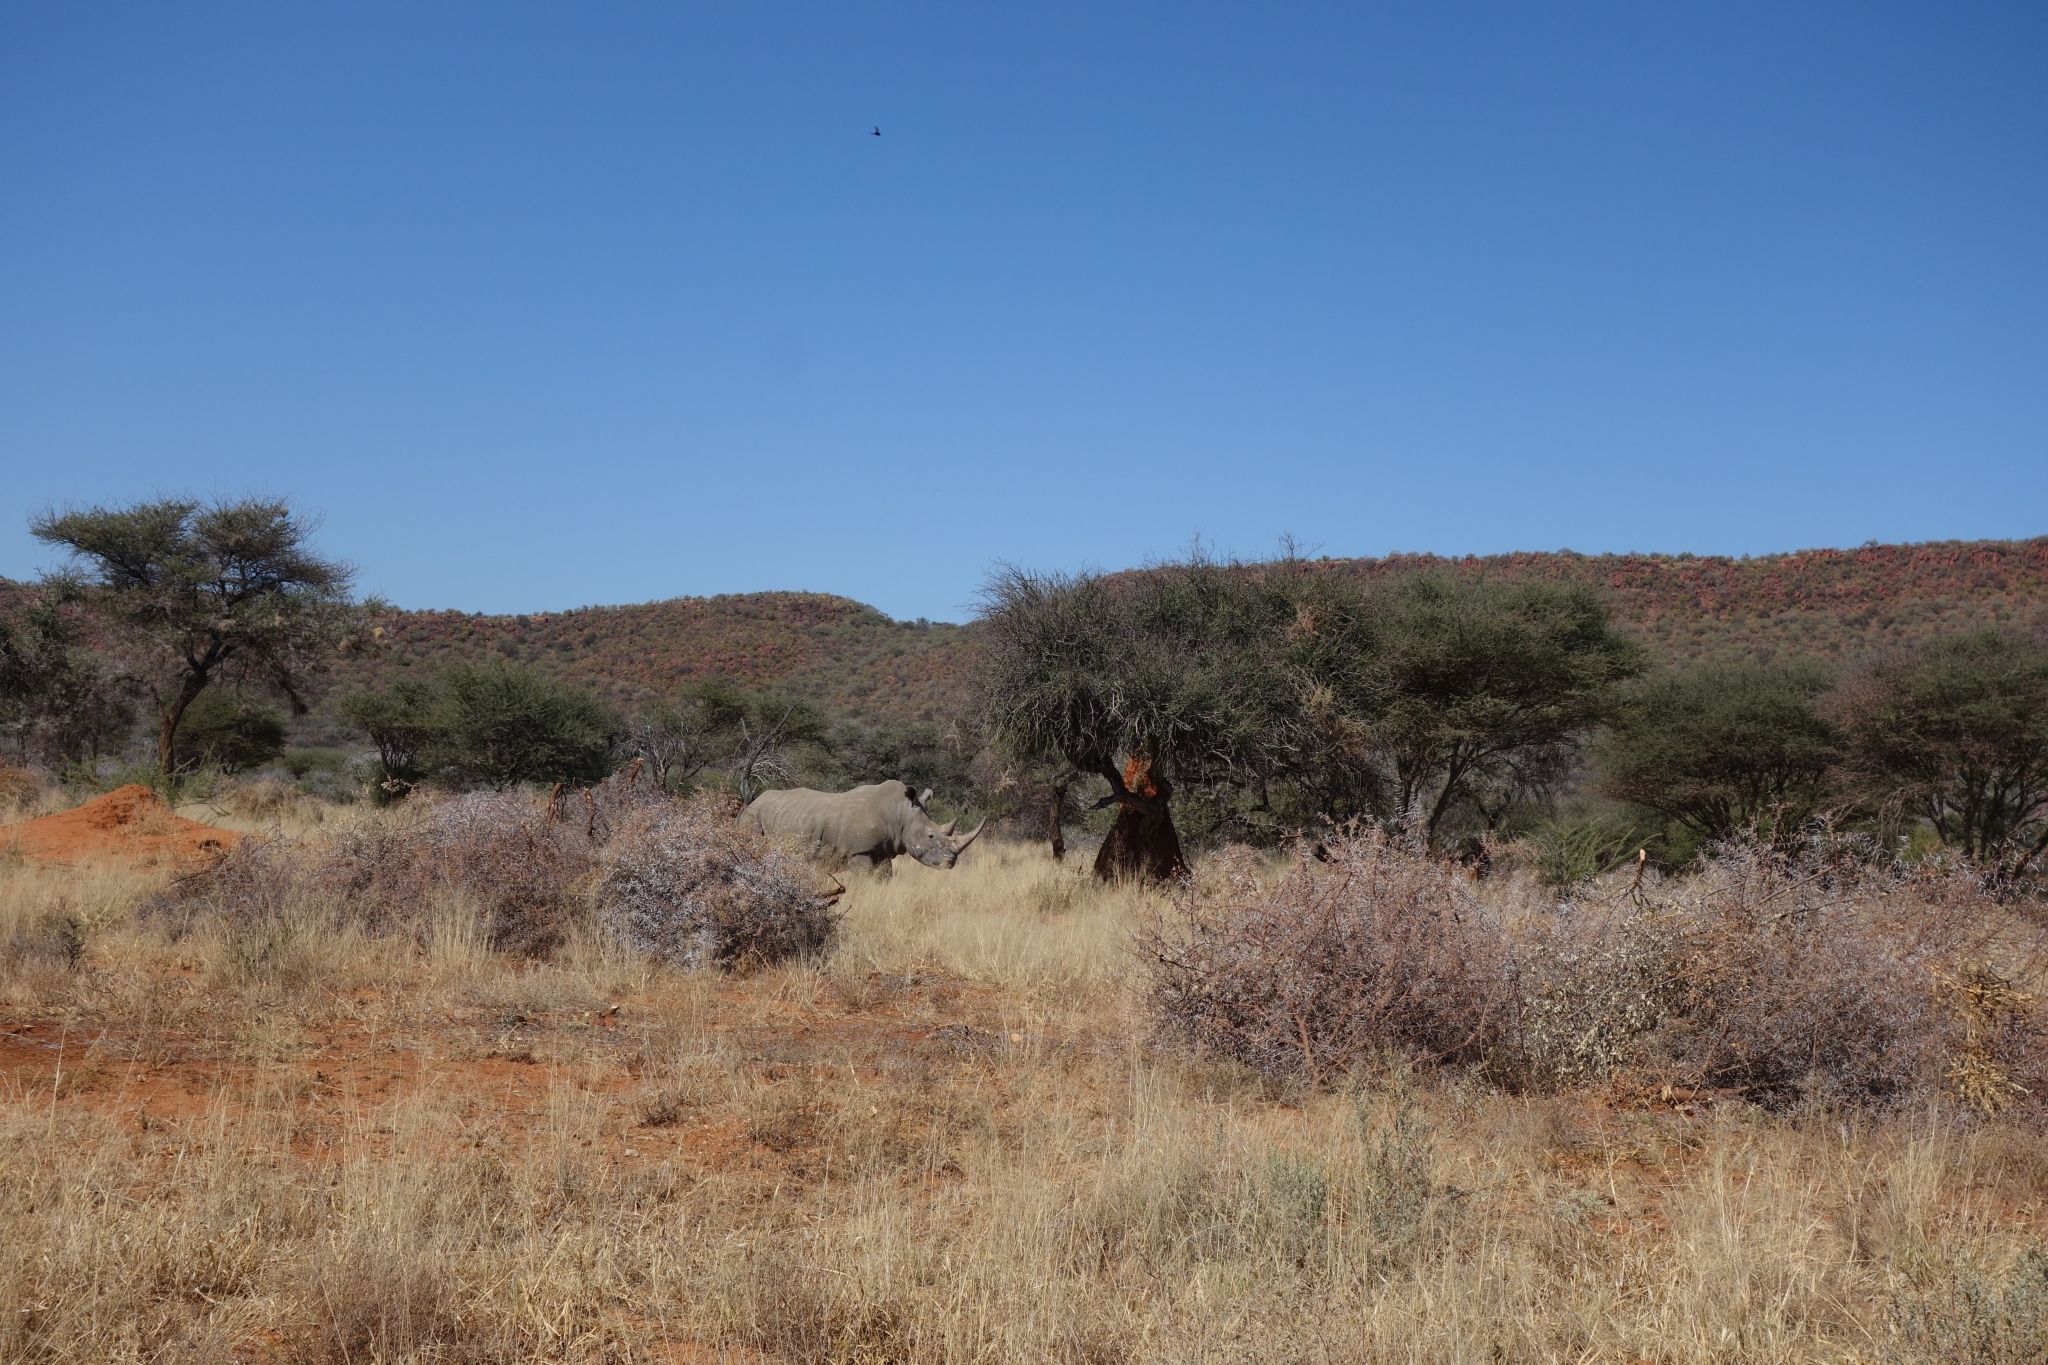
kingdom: Animalia
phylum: Chordata
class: Mammalia
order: Perissodactyla
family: Rhinocerotidae
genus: Ceratotherium
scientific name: Ceratotherium simum
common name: White rhinoceros
